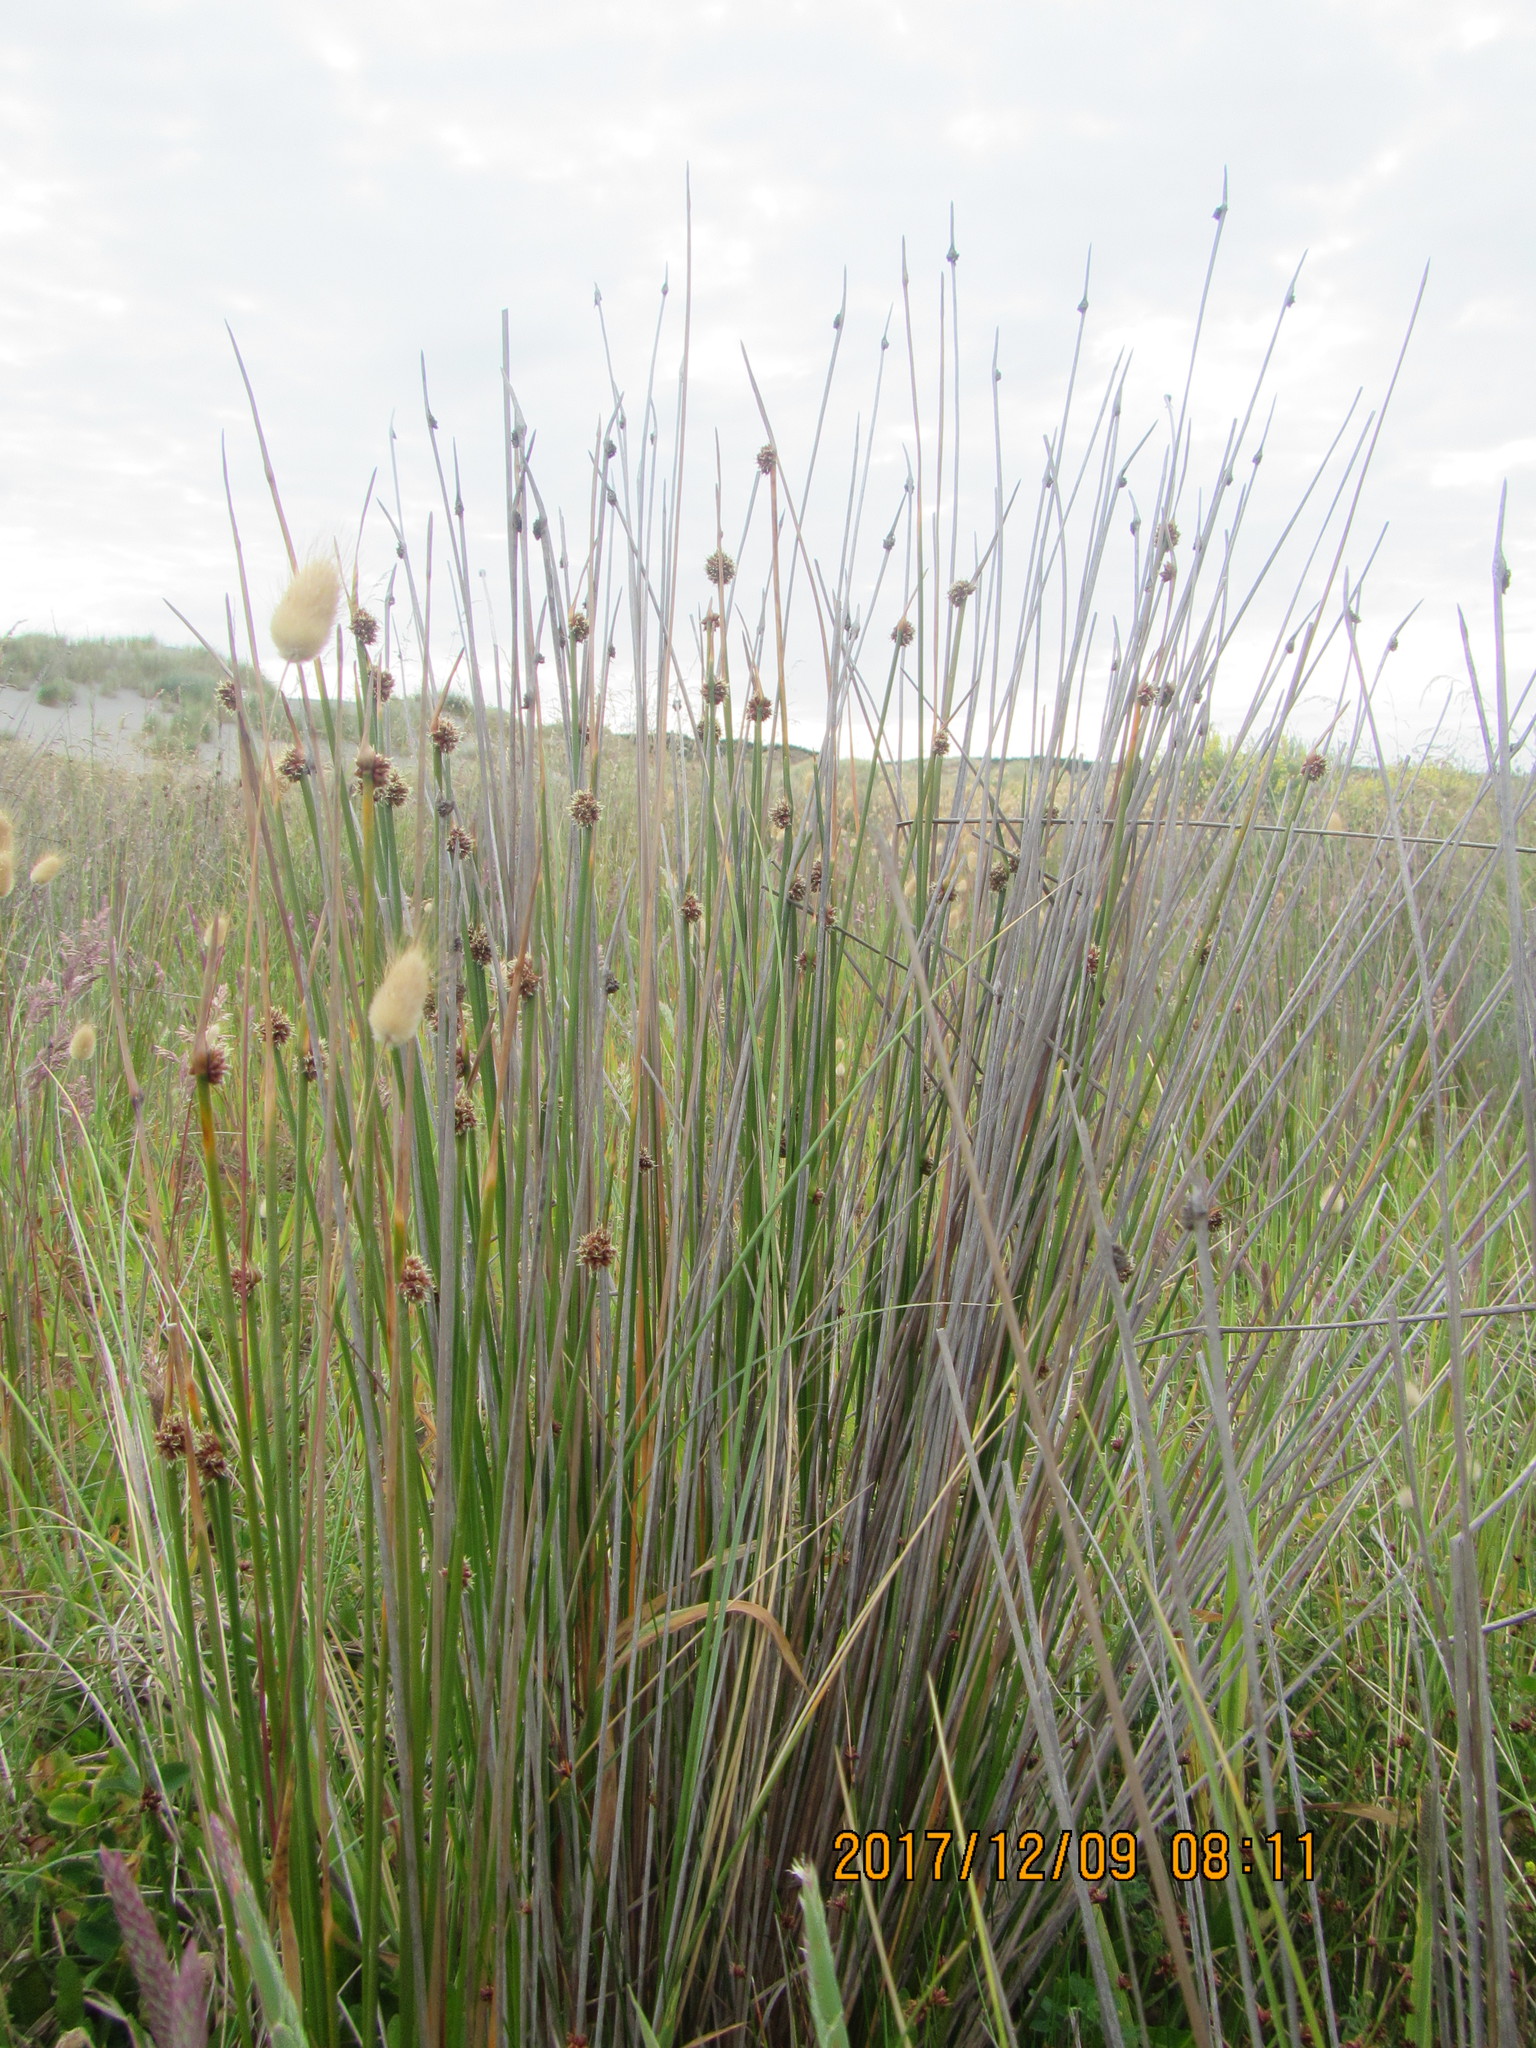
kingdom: Plantae
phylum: Tracheophyta
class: Liliopsida
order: Poales
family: Cyperaceae
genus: Ficinia
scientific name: Ficinia nodosa
